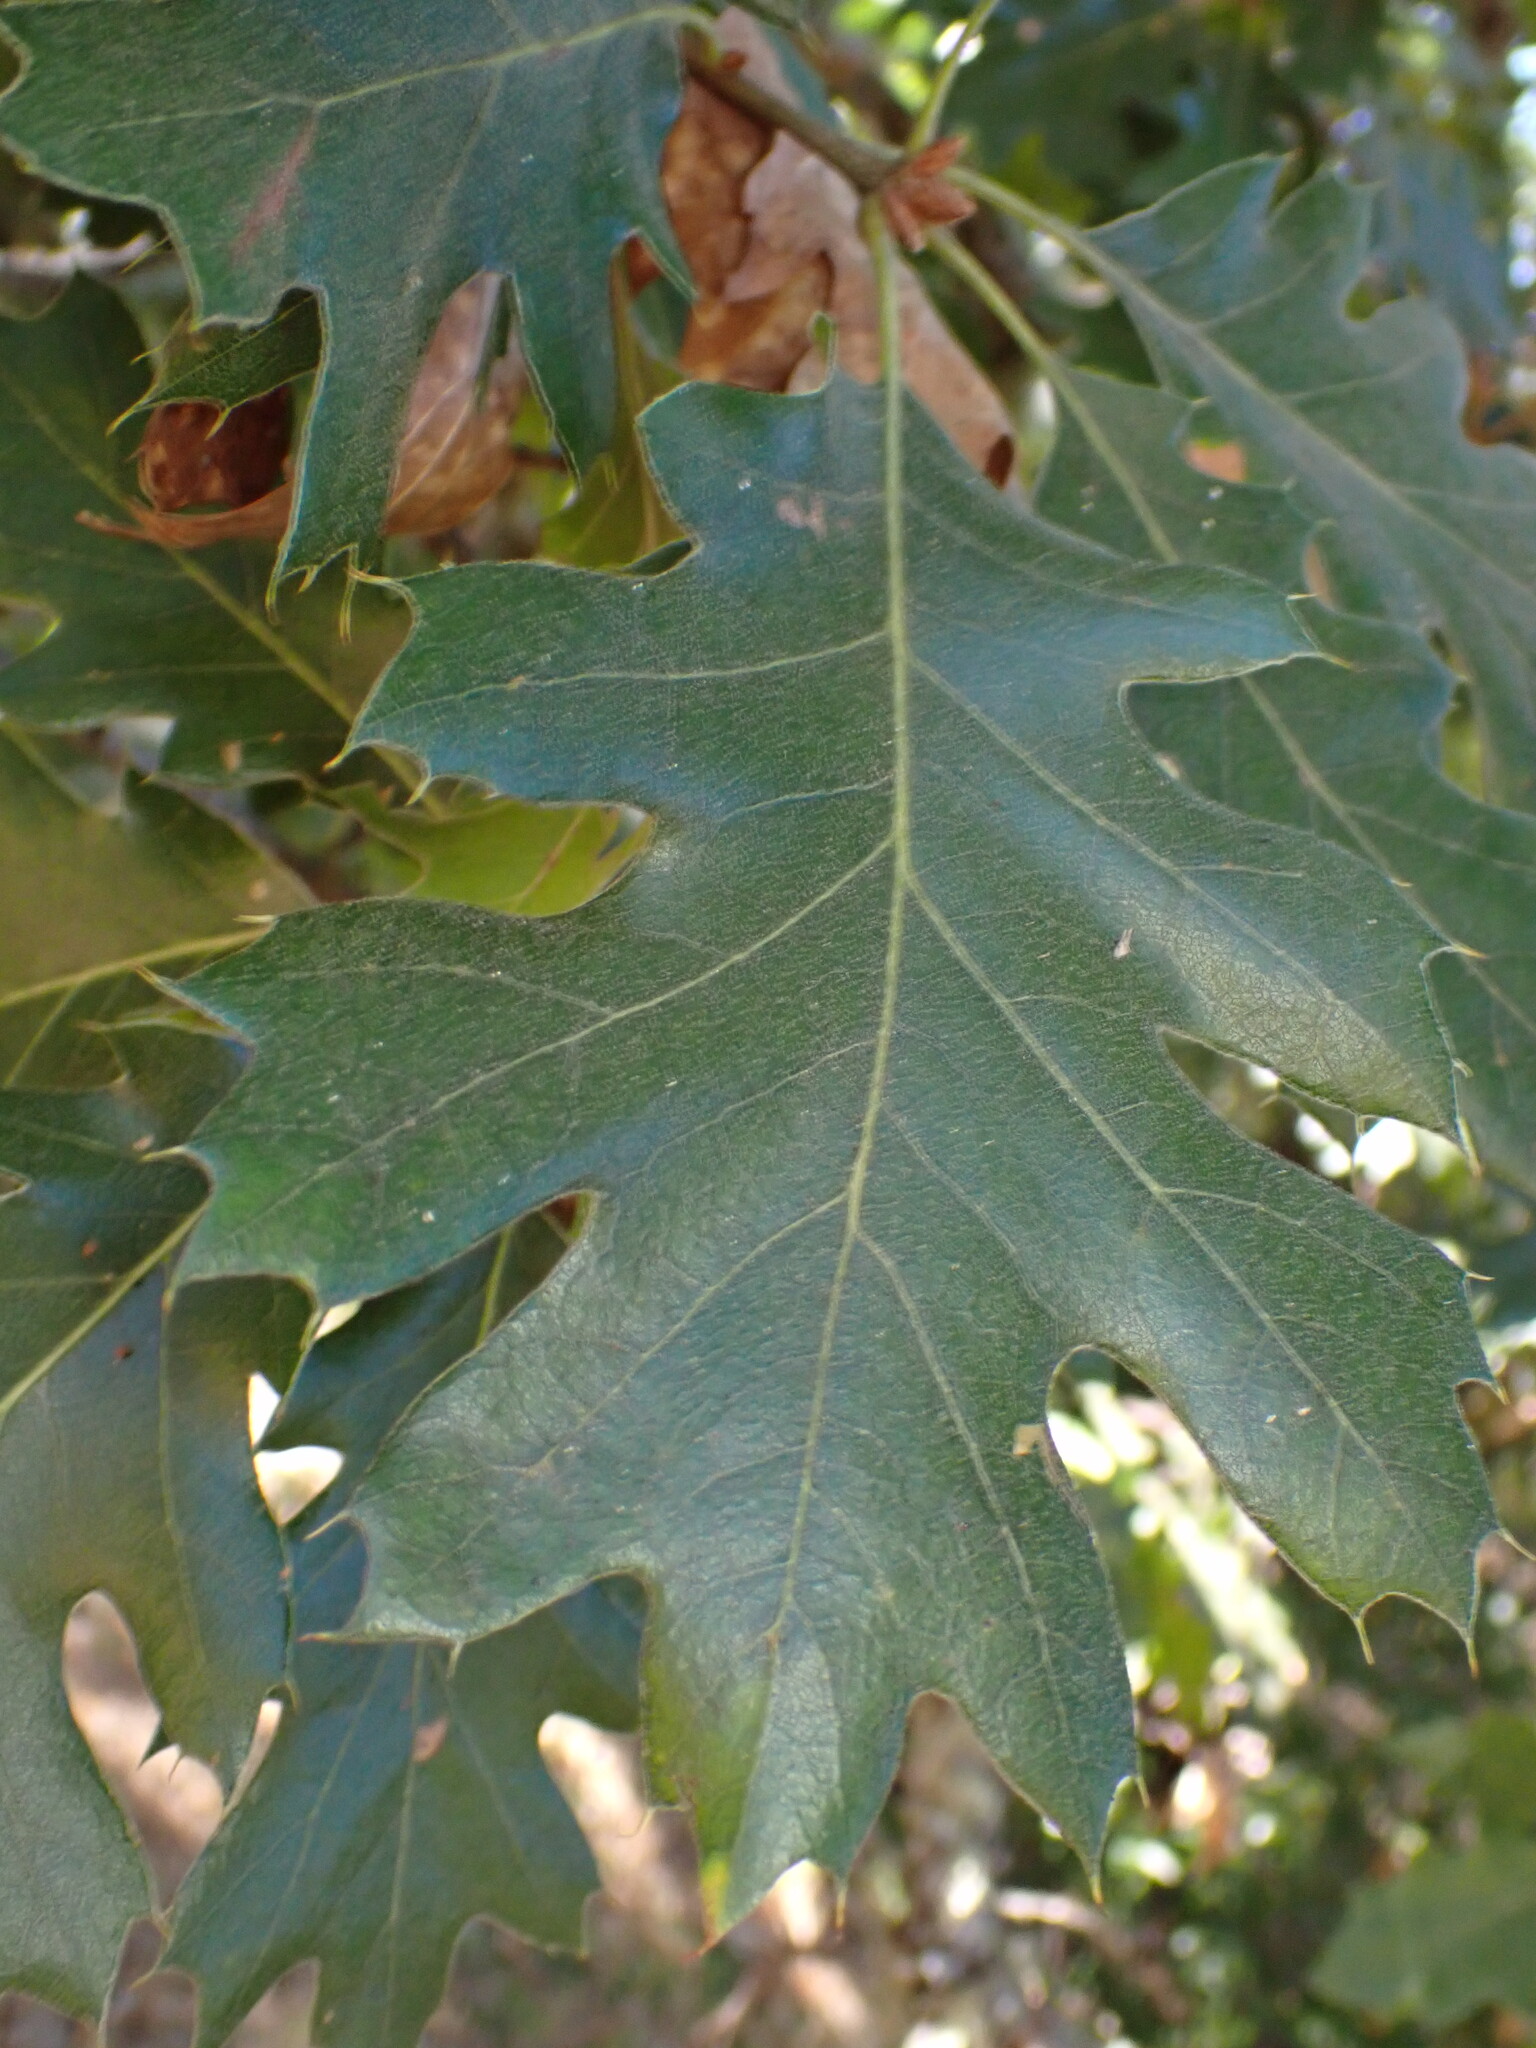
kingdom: Plantae
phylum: Tracheophyta
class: Magnoliopsida
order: Fagales
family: Fagaceae
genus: Quercus
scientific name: Quercus kelloggii
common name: California black oak
